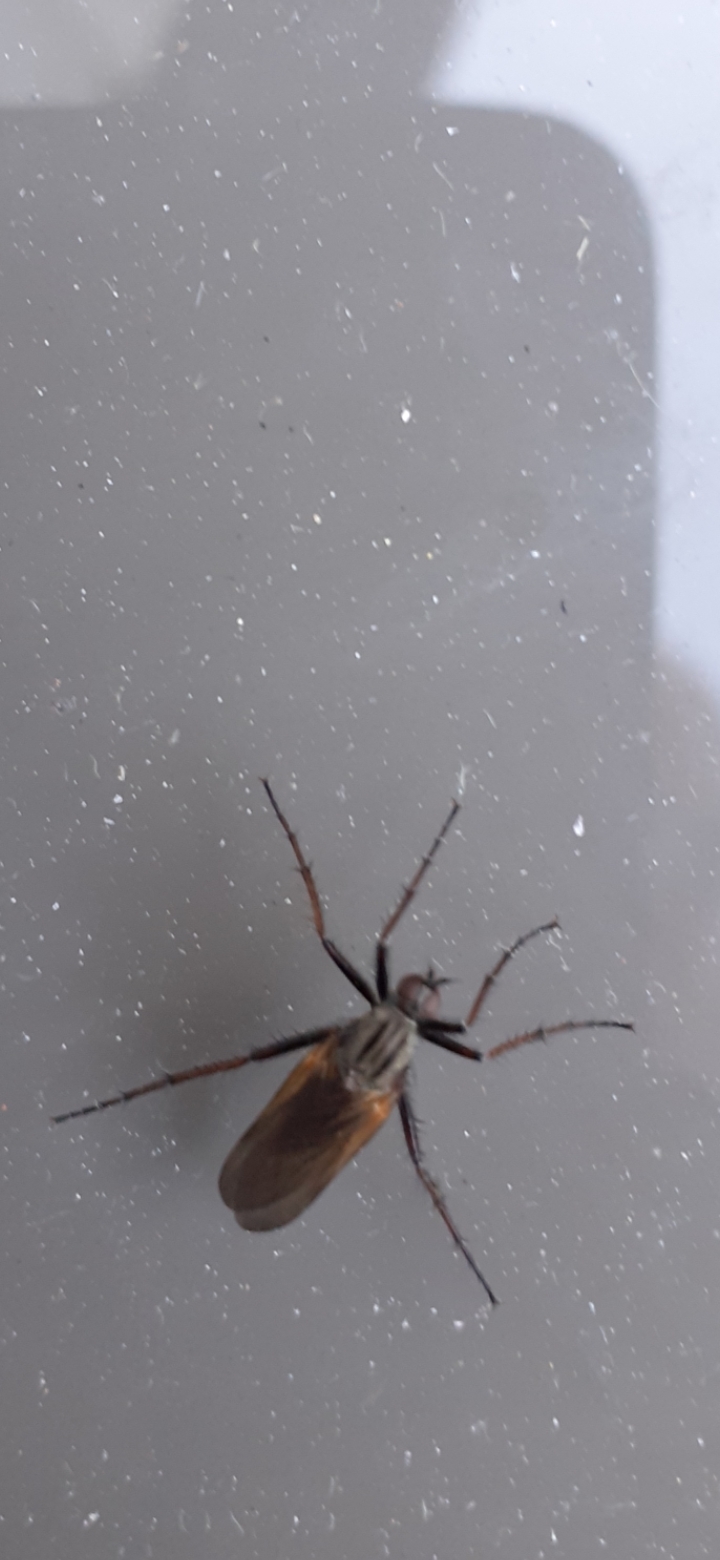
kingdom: Animalia
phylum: Arthropoda
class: Insecta
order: Diptera
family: Empididae
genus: Empis
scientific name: Empis tessellata
